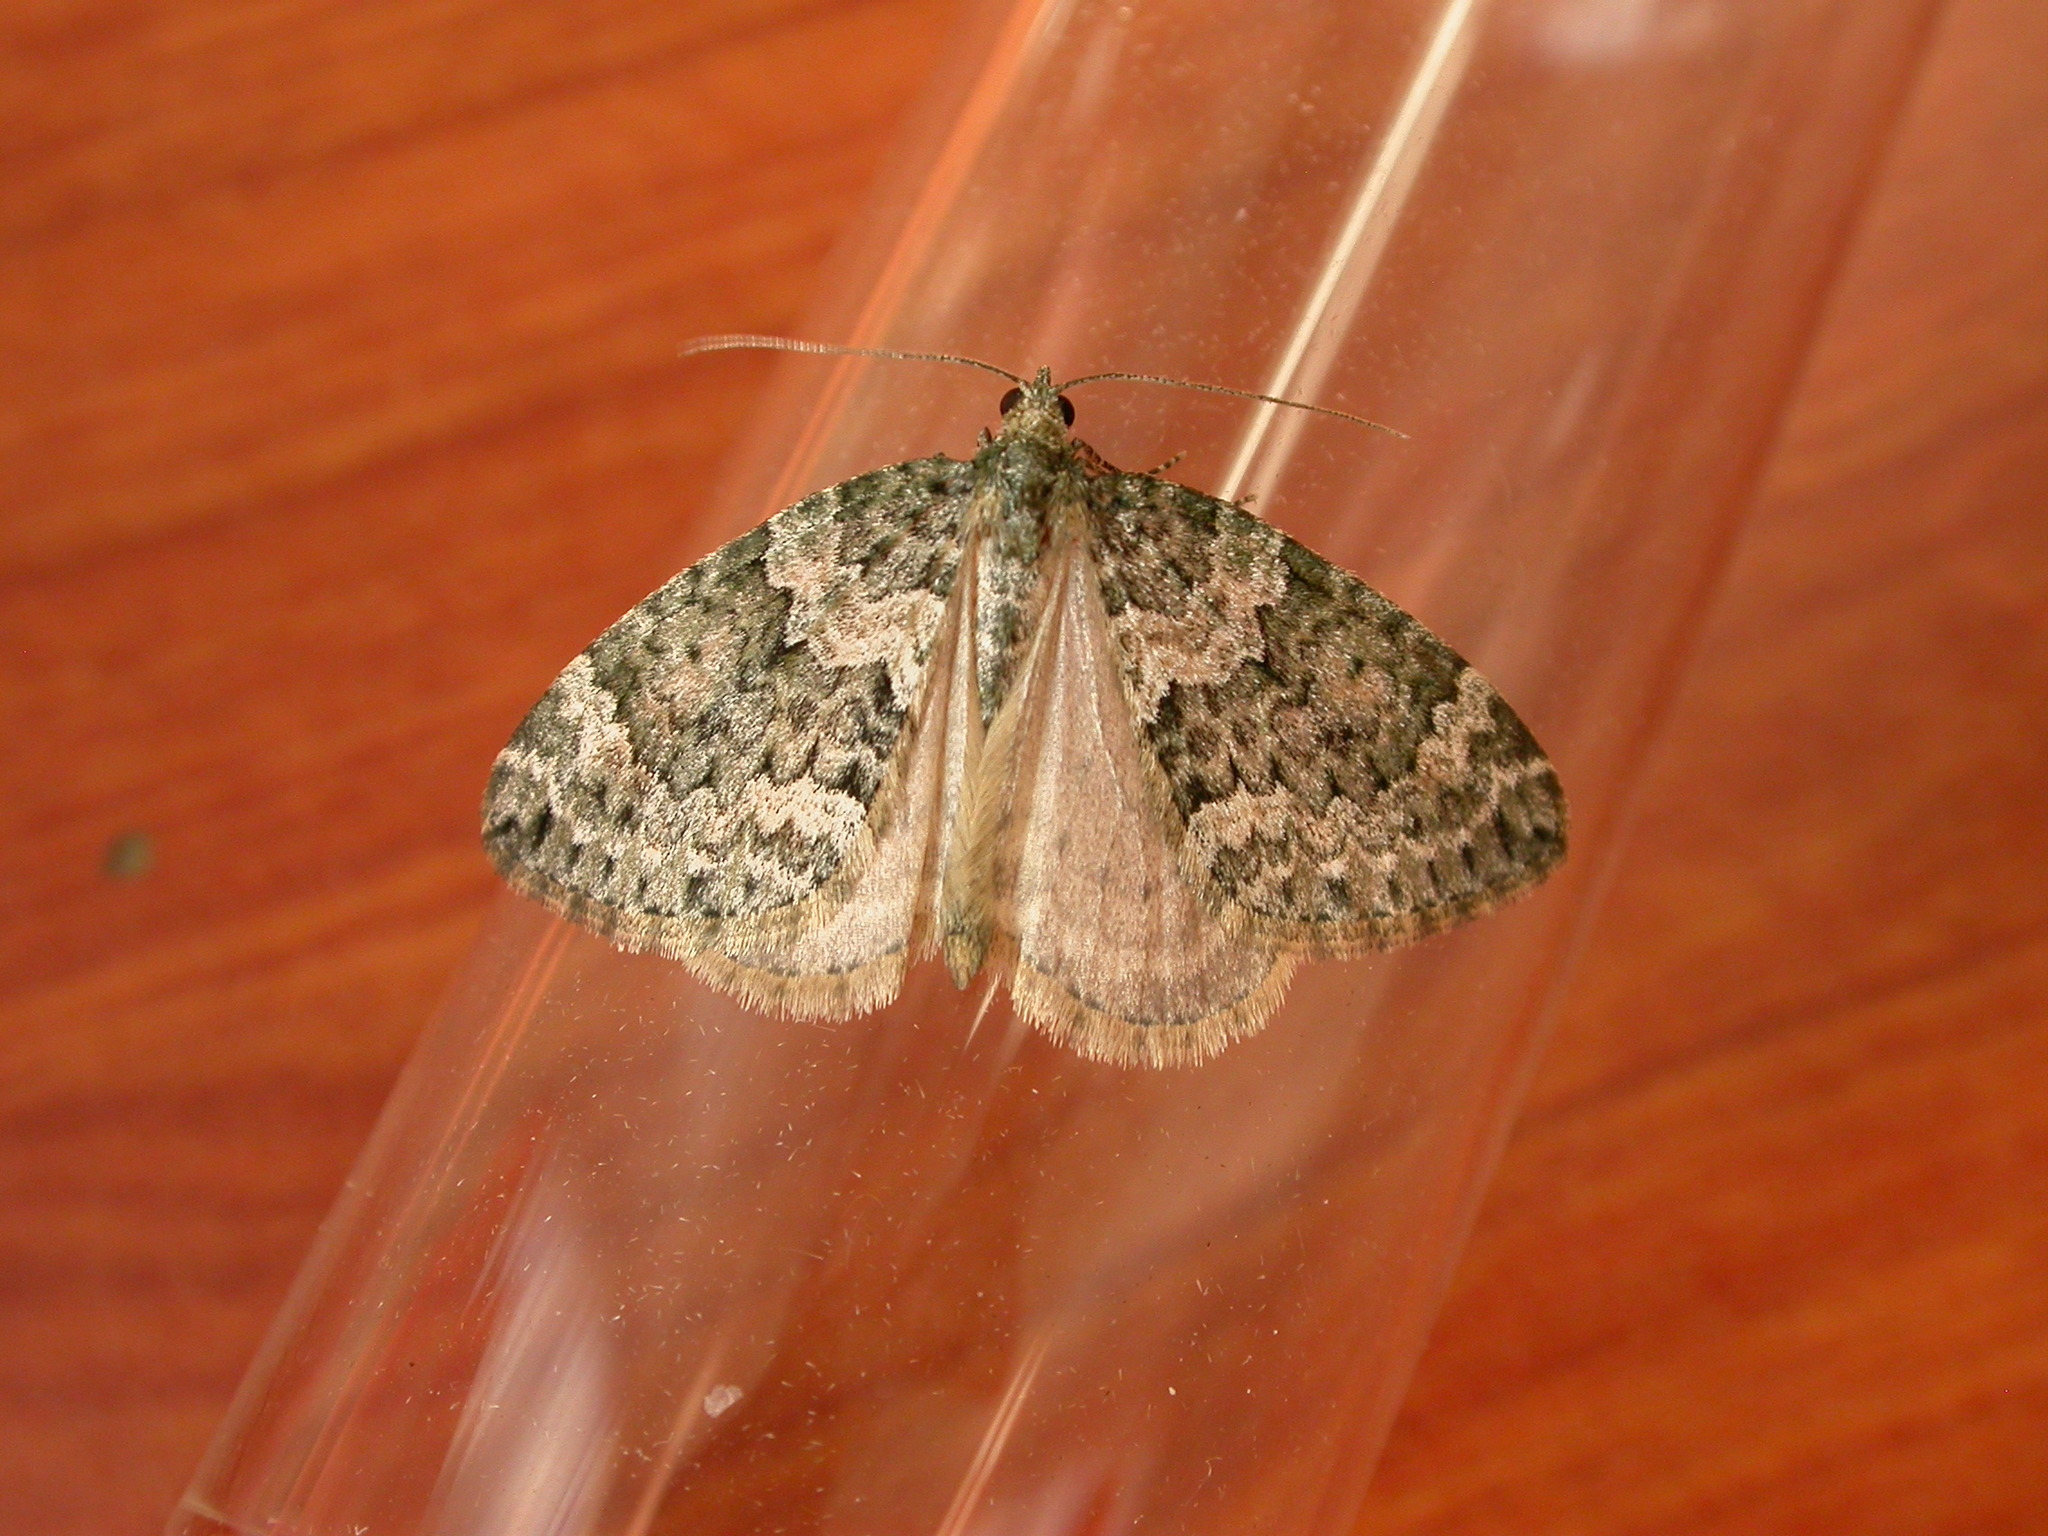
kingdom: Animalia
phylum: Arthropoda
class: Insecta
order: Lepidoptera
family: Geometridae
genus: Chloroclysta
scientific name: Chloroclysta miata
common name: Autumn green carpet
